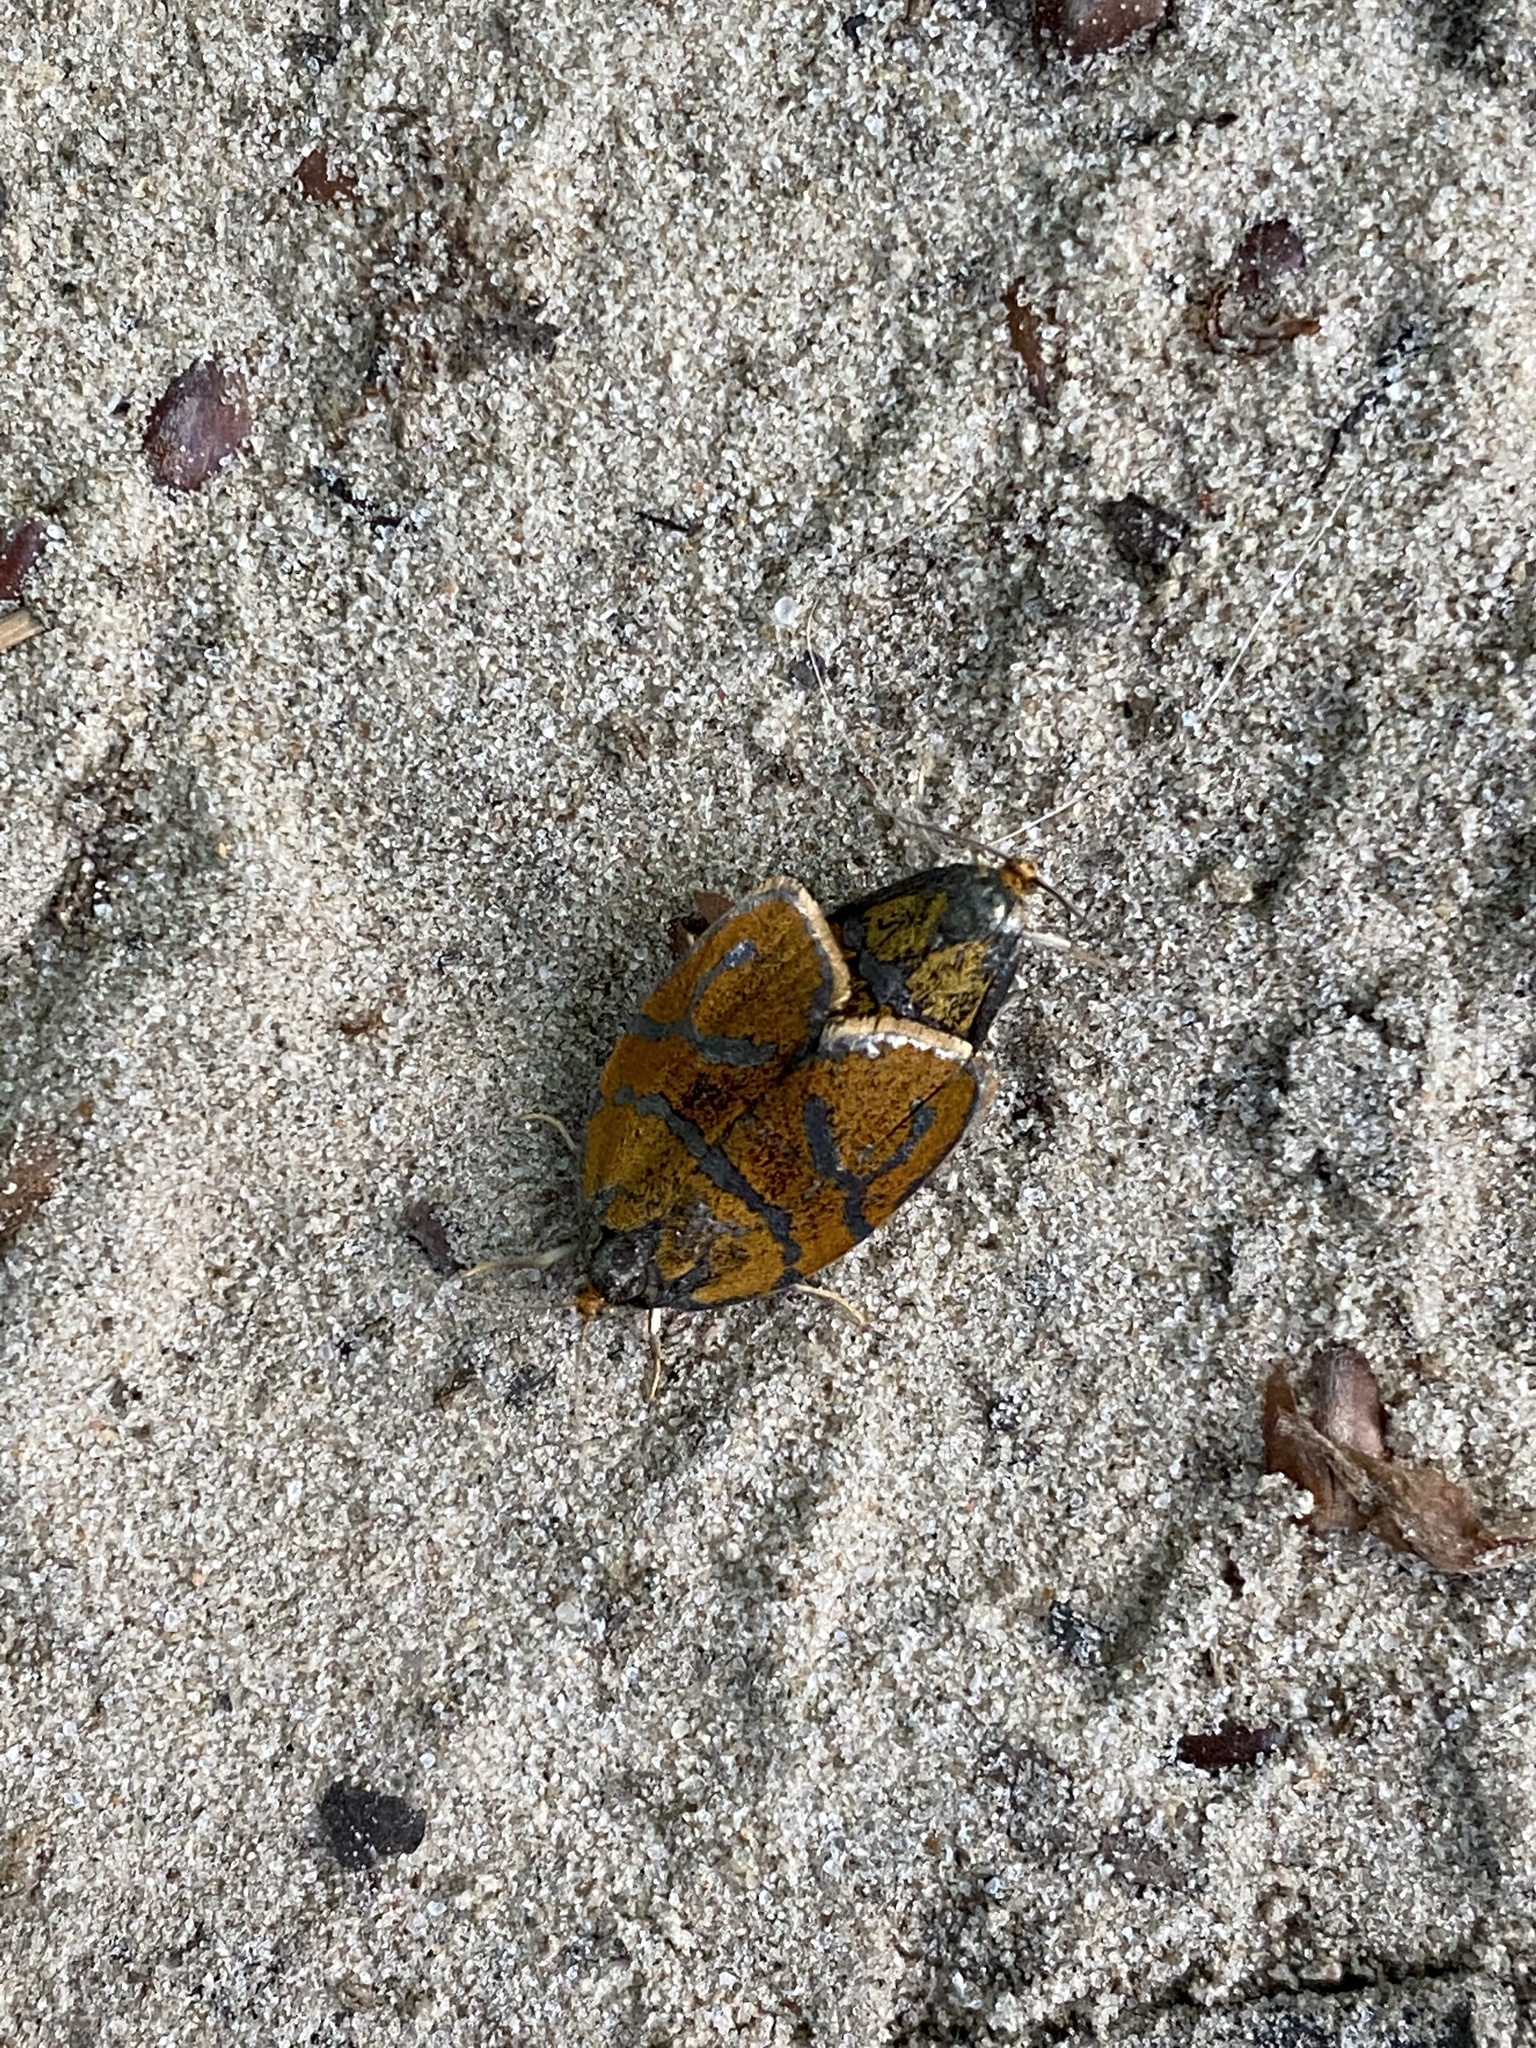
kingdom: Animalia
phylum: Arthropoda
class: Insecta
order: Lepidoptera
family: Tortricidae
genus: Ptycholoma
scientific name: Ptycholoma lecheana
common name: Leches twist moth
